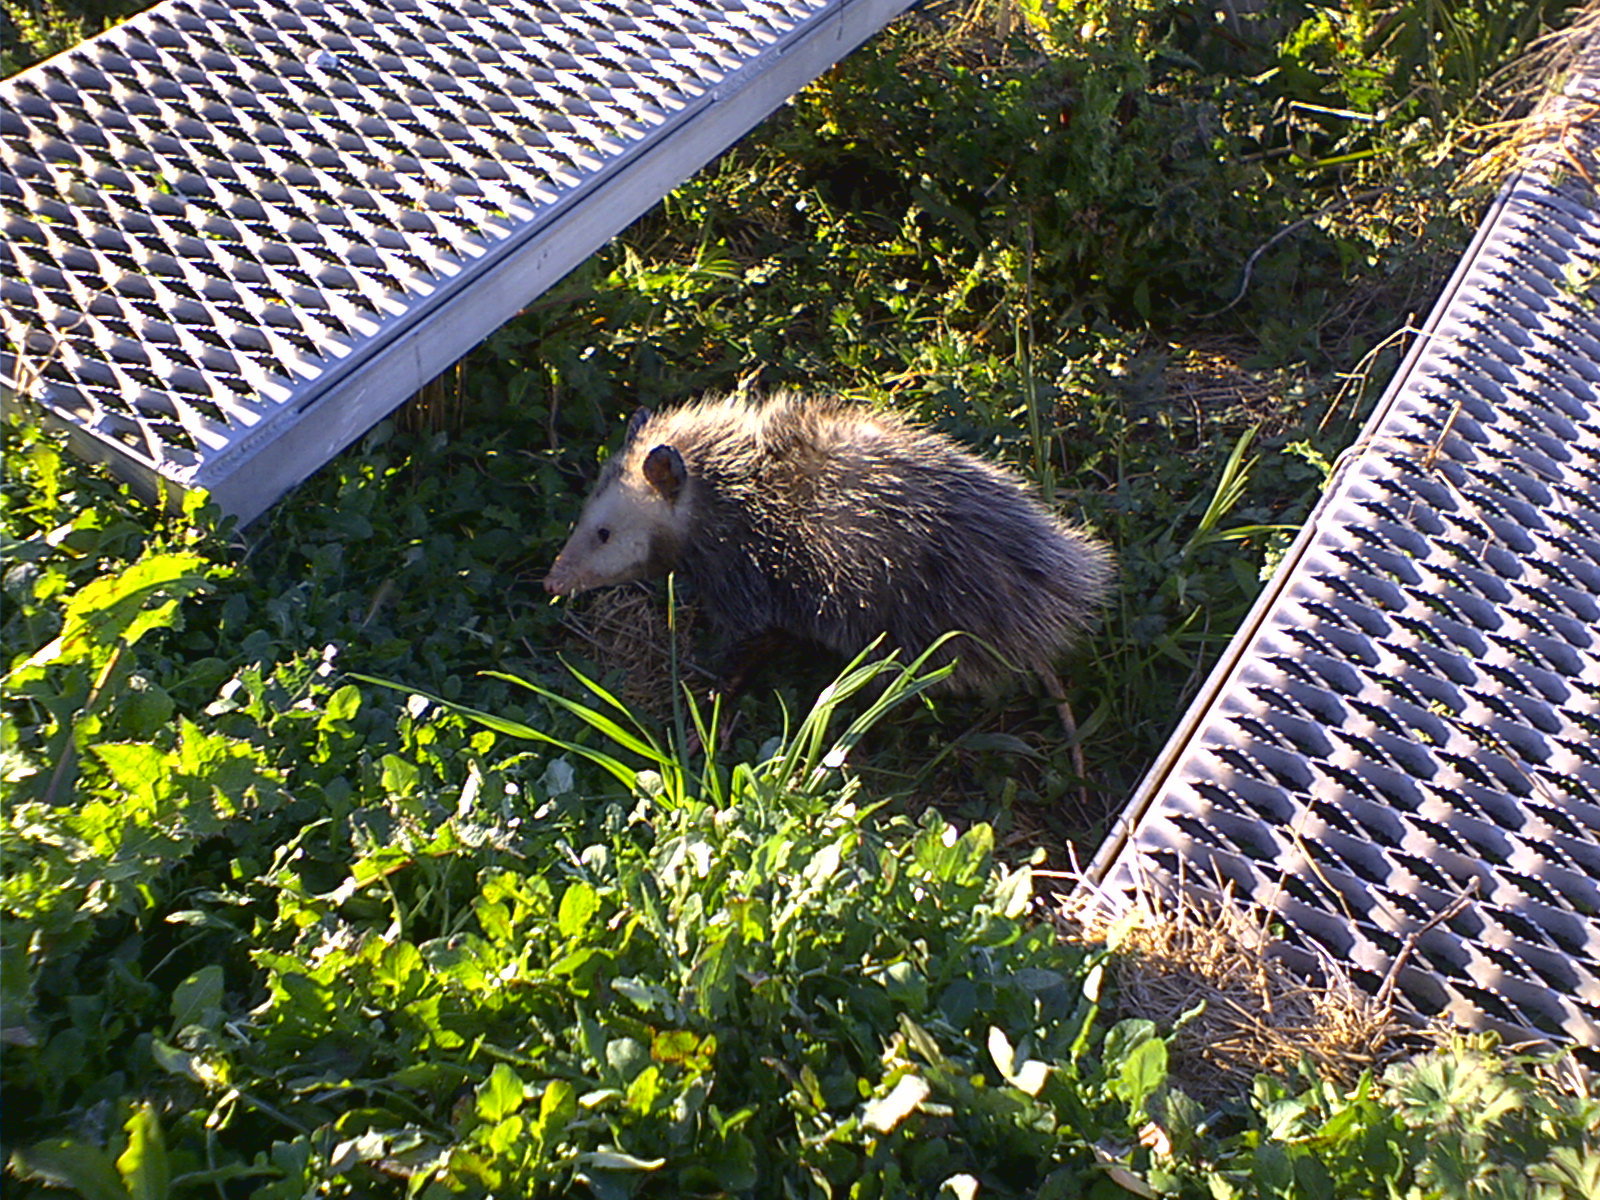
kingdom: Animalia
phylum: Chordata
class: Mammalia
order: Didelphimorphia
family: Didelphidae
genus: Didelphis
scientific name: Didelphis virginiana
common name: Virginia opossum
